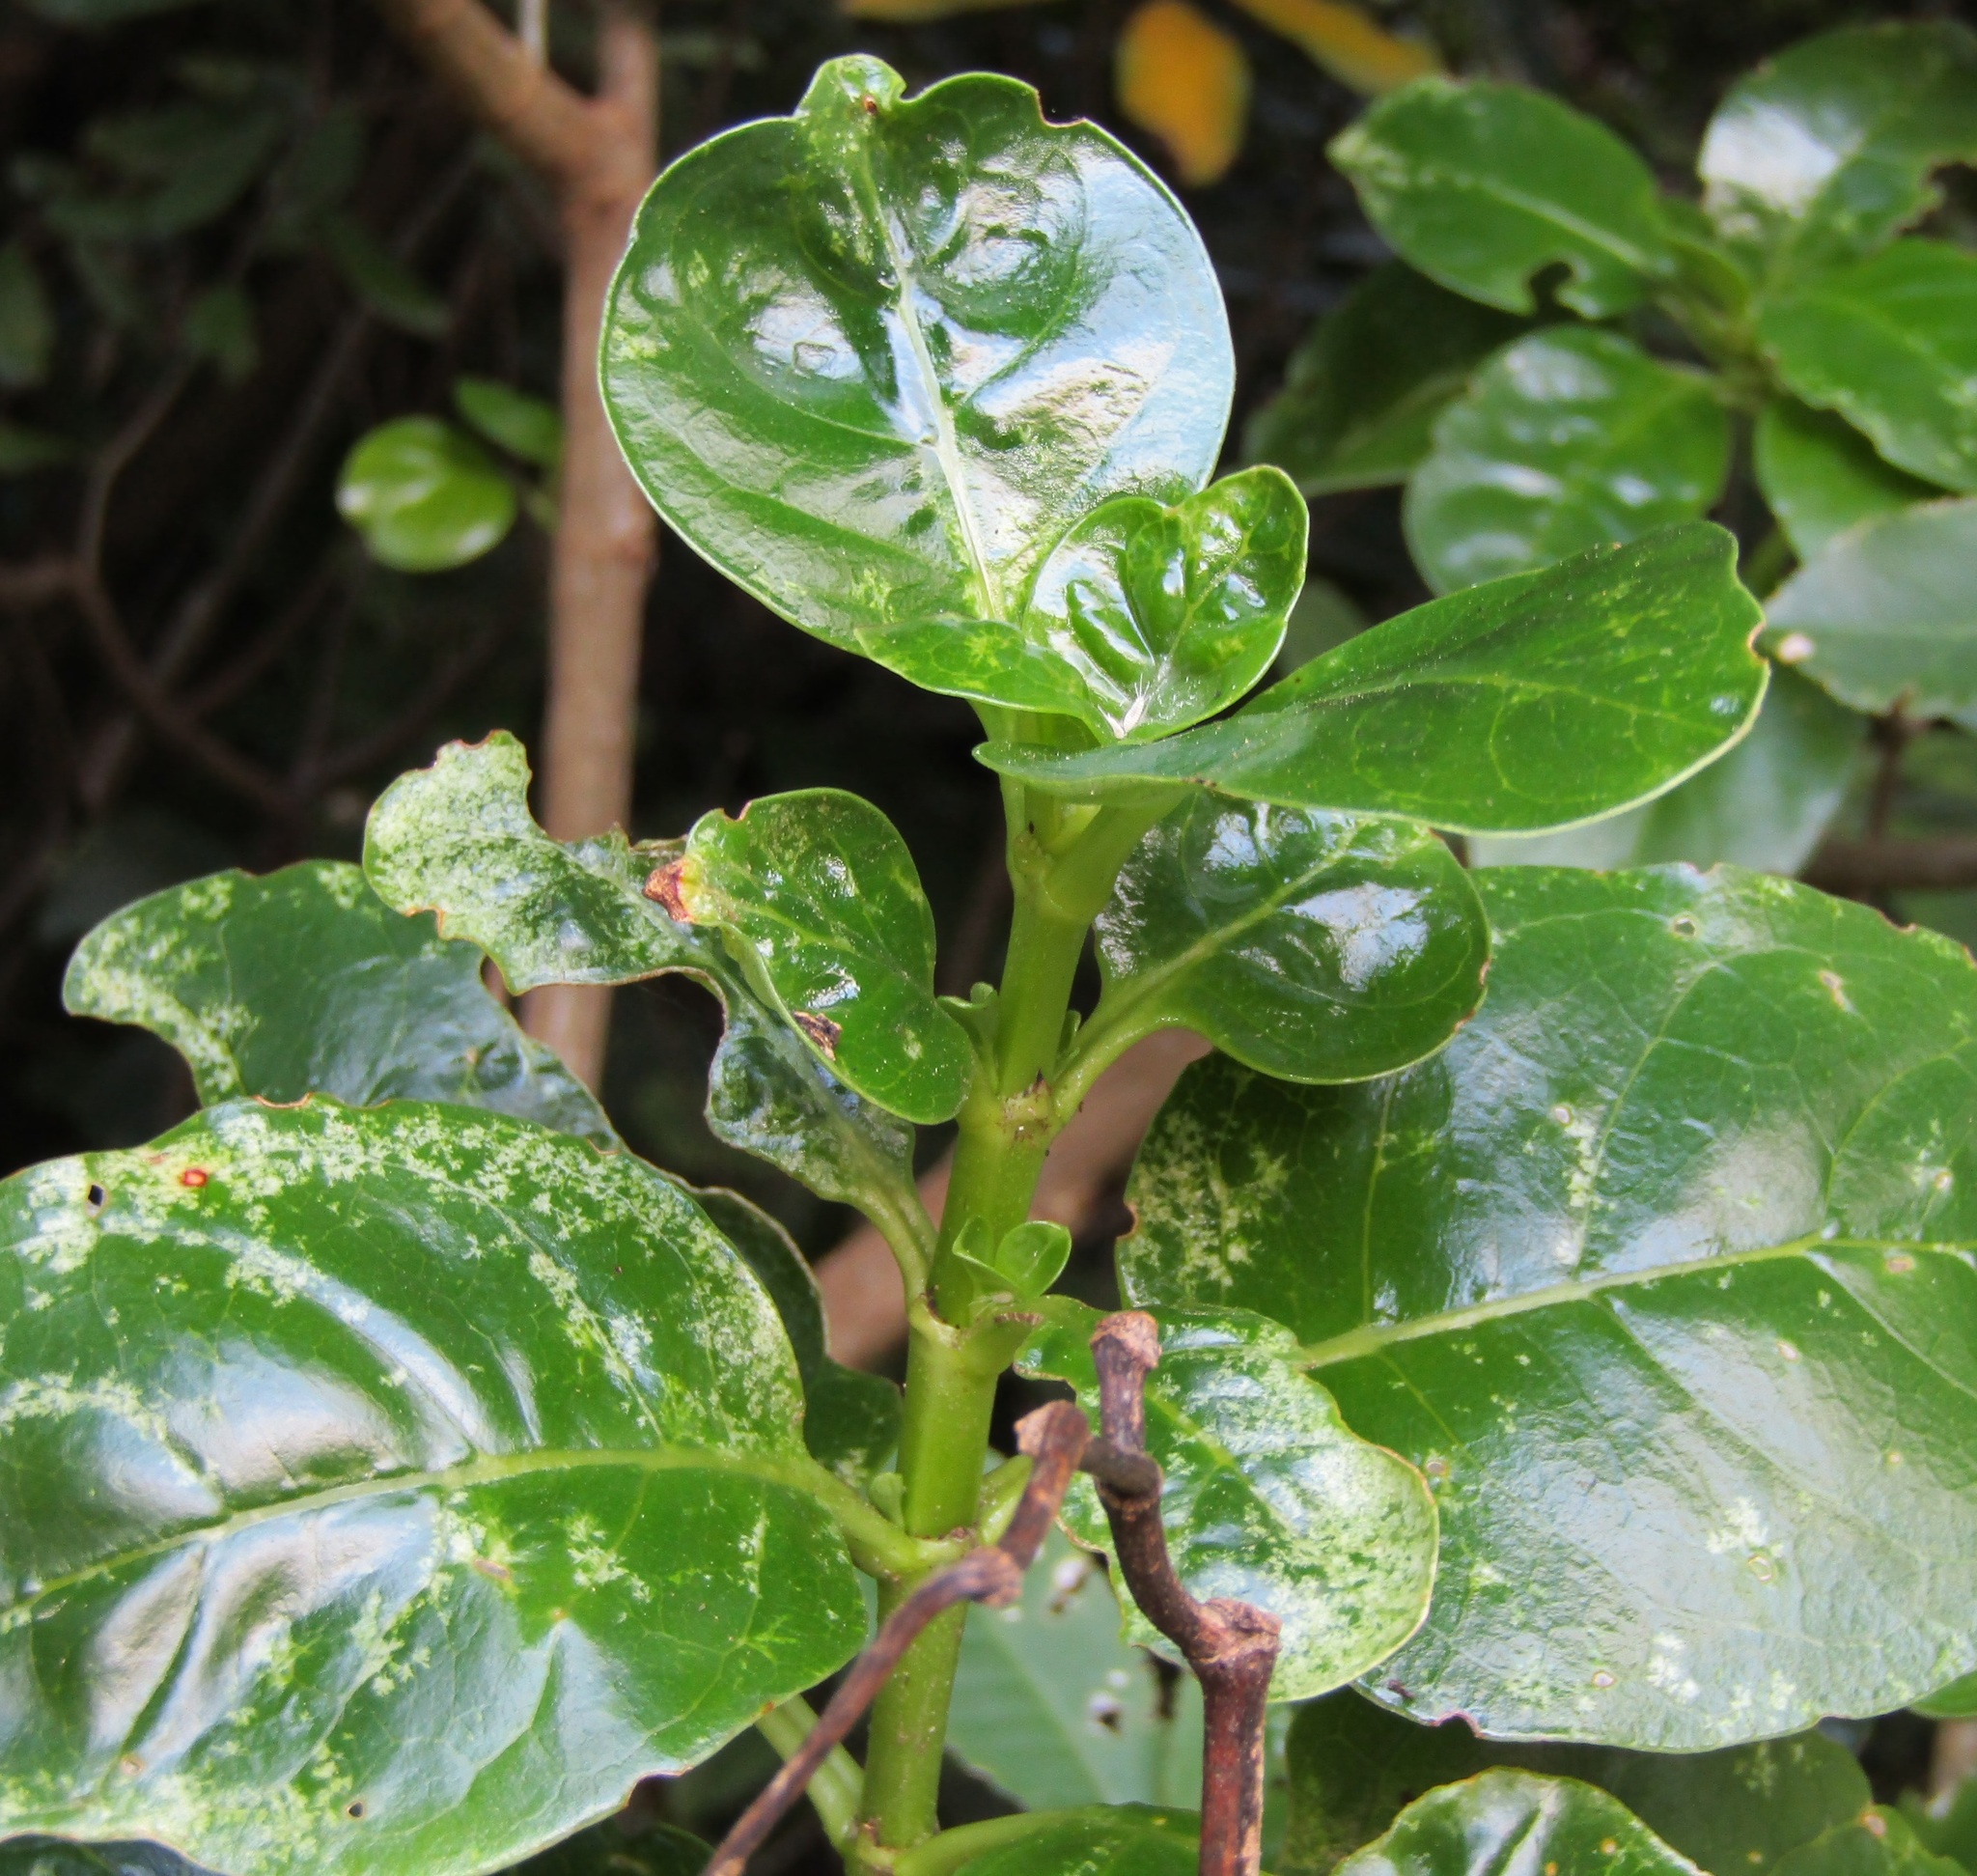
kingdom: Plantae
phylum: Tracheophyta
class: Magnoliopsida
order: Gentianales
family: Rubiaceae
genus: Coprosma
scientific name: Coprosma repens
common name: Tree bedstraw
